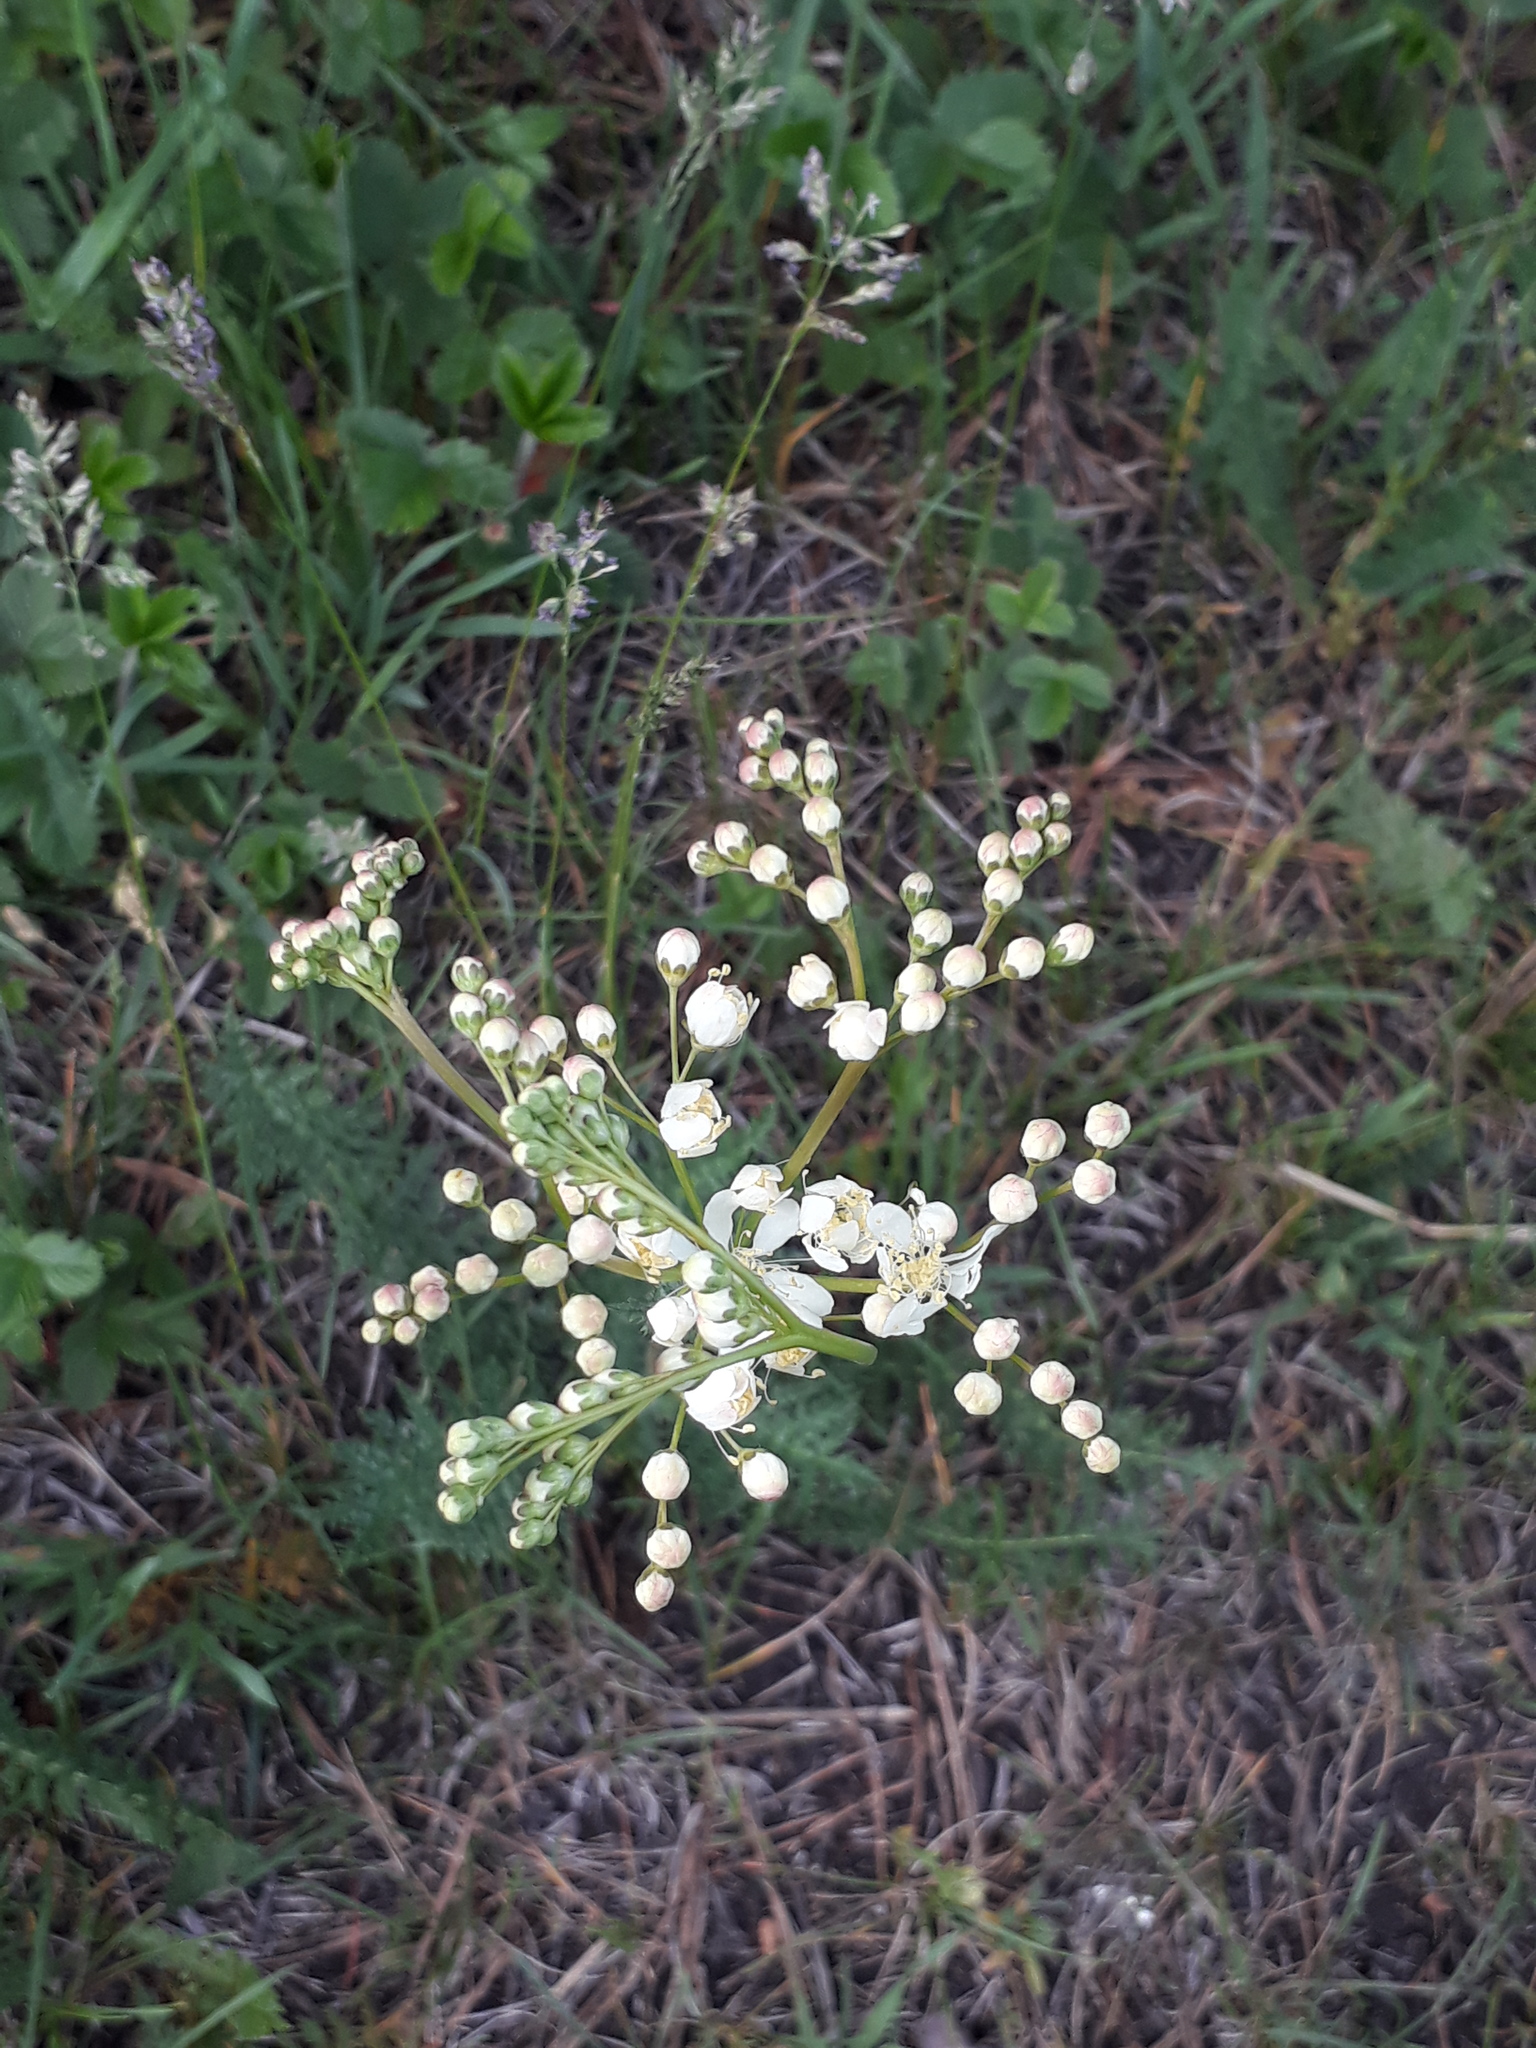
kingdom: Plantae
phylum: Tracheophyta
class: Magnoliopsida
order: Rosales
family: Rosaceae
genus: Filipendula
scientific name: Filipendula vulgaris
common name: Dropwort
